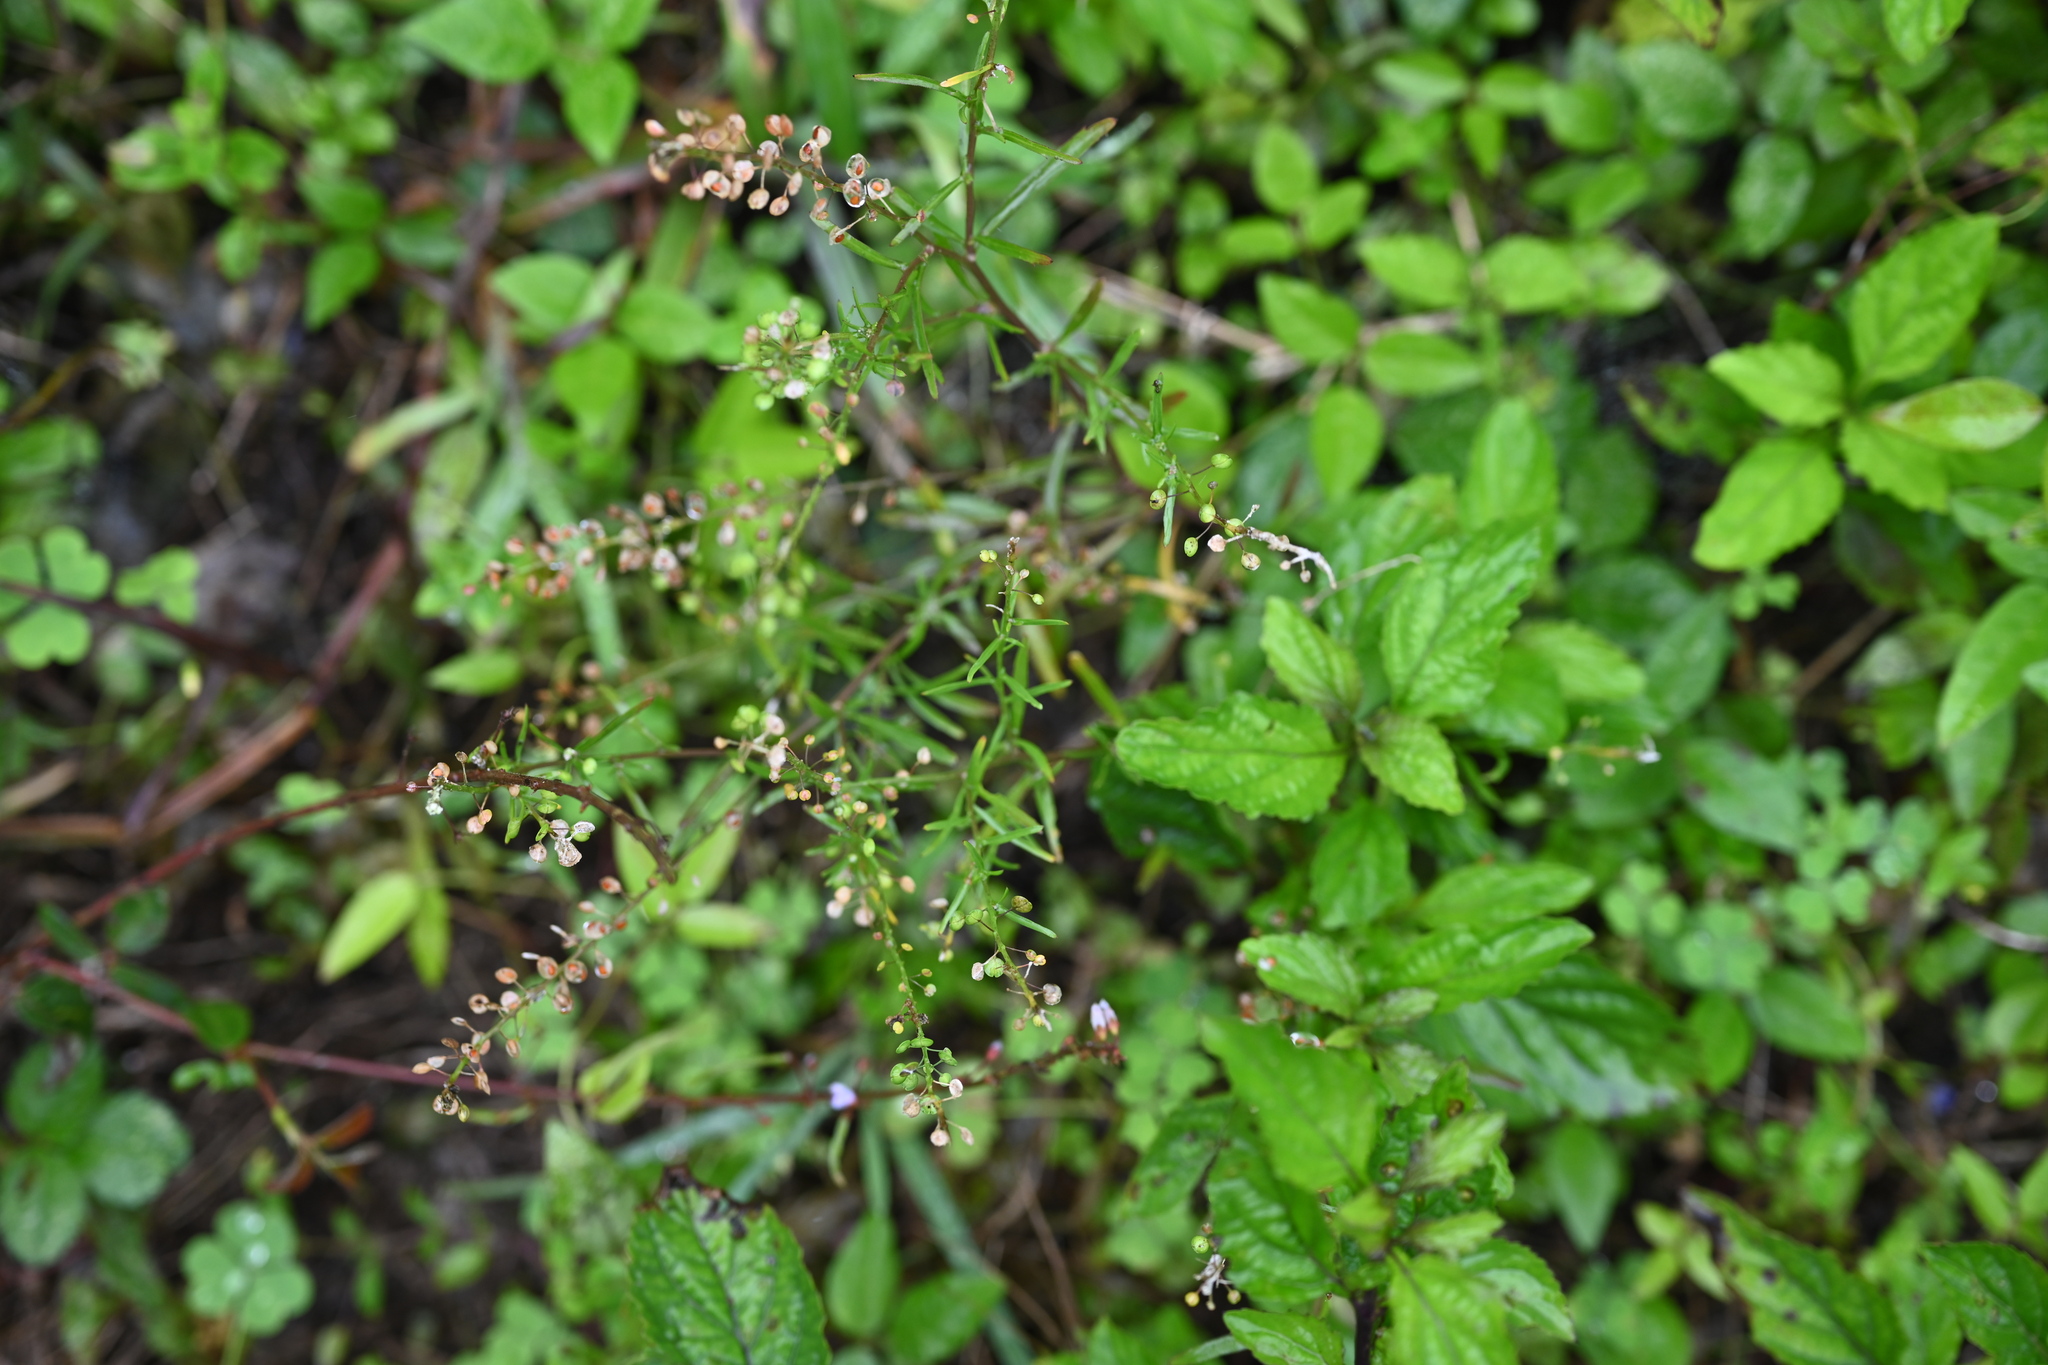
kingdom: Plantae
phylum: Tracheophyta
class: Magnoliopsida
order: Brassicales
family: Brassicaceae
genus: Lepidium
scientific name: Lepidium virginicum
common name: Least pepperwort
